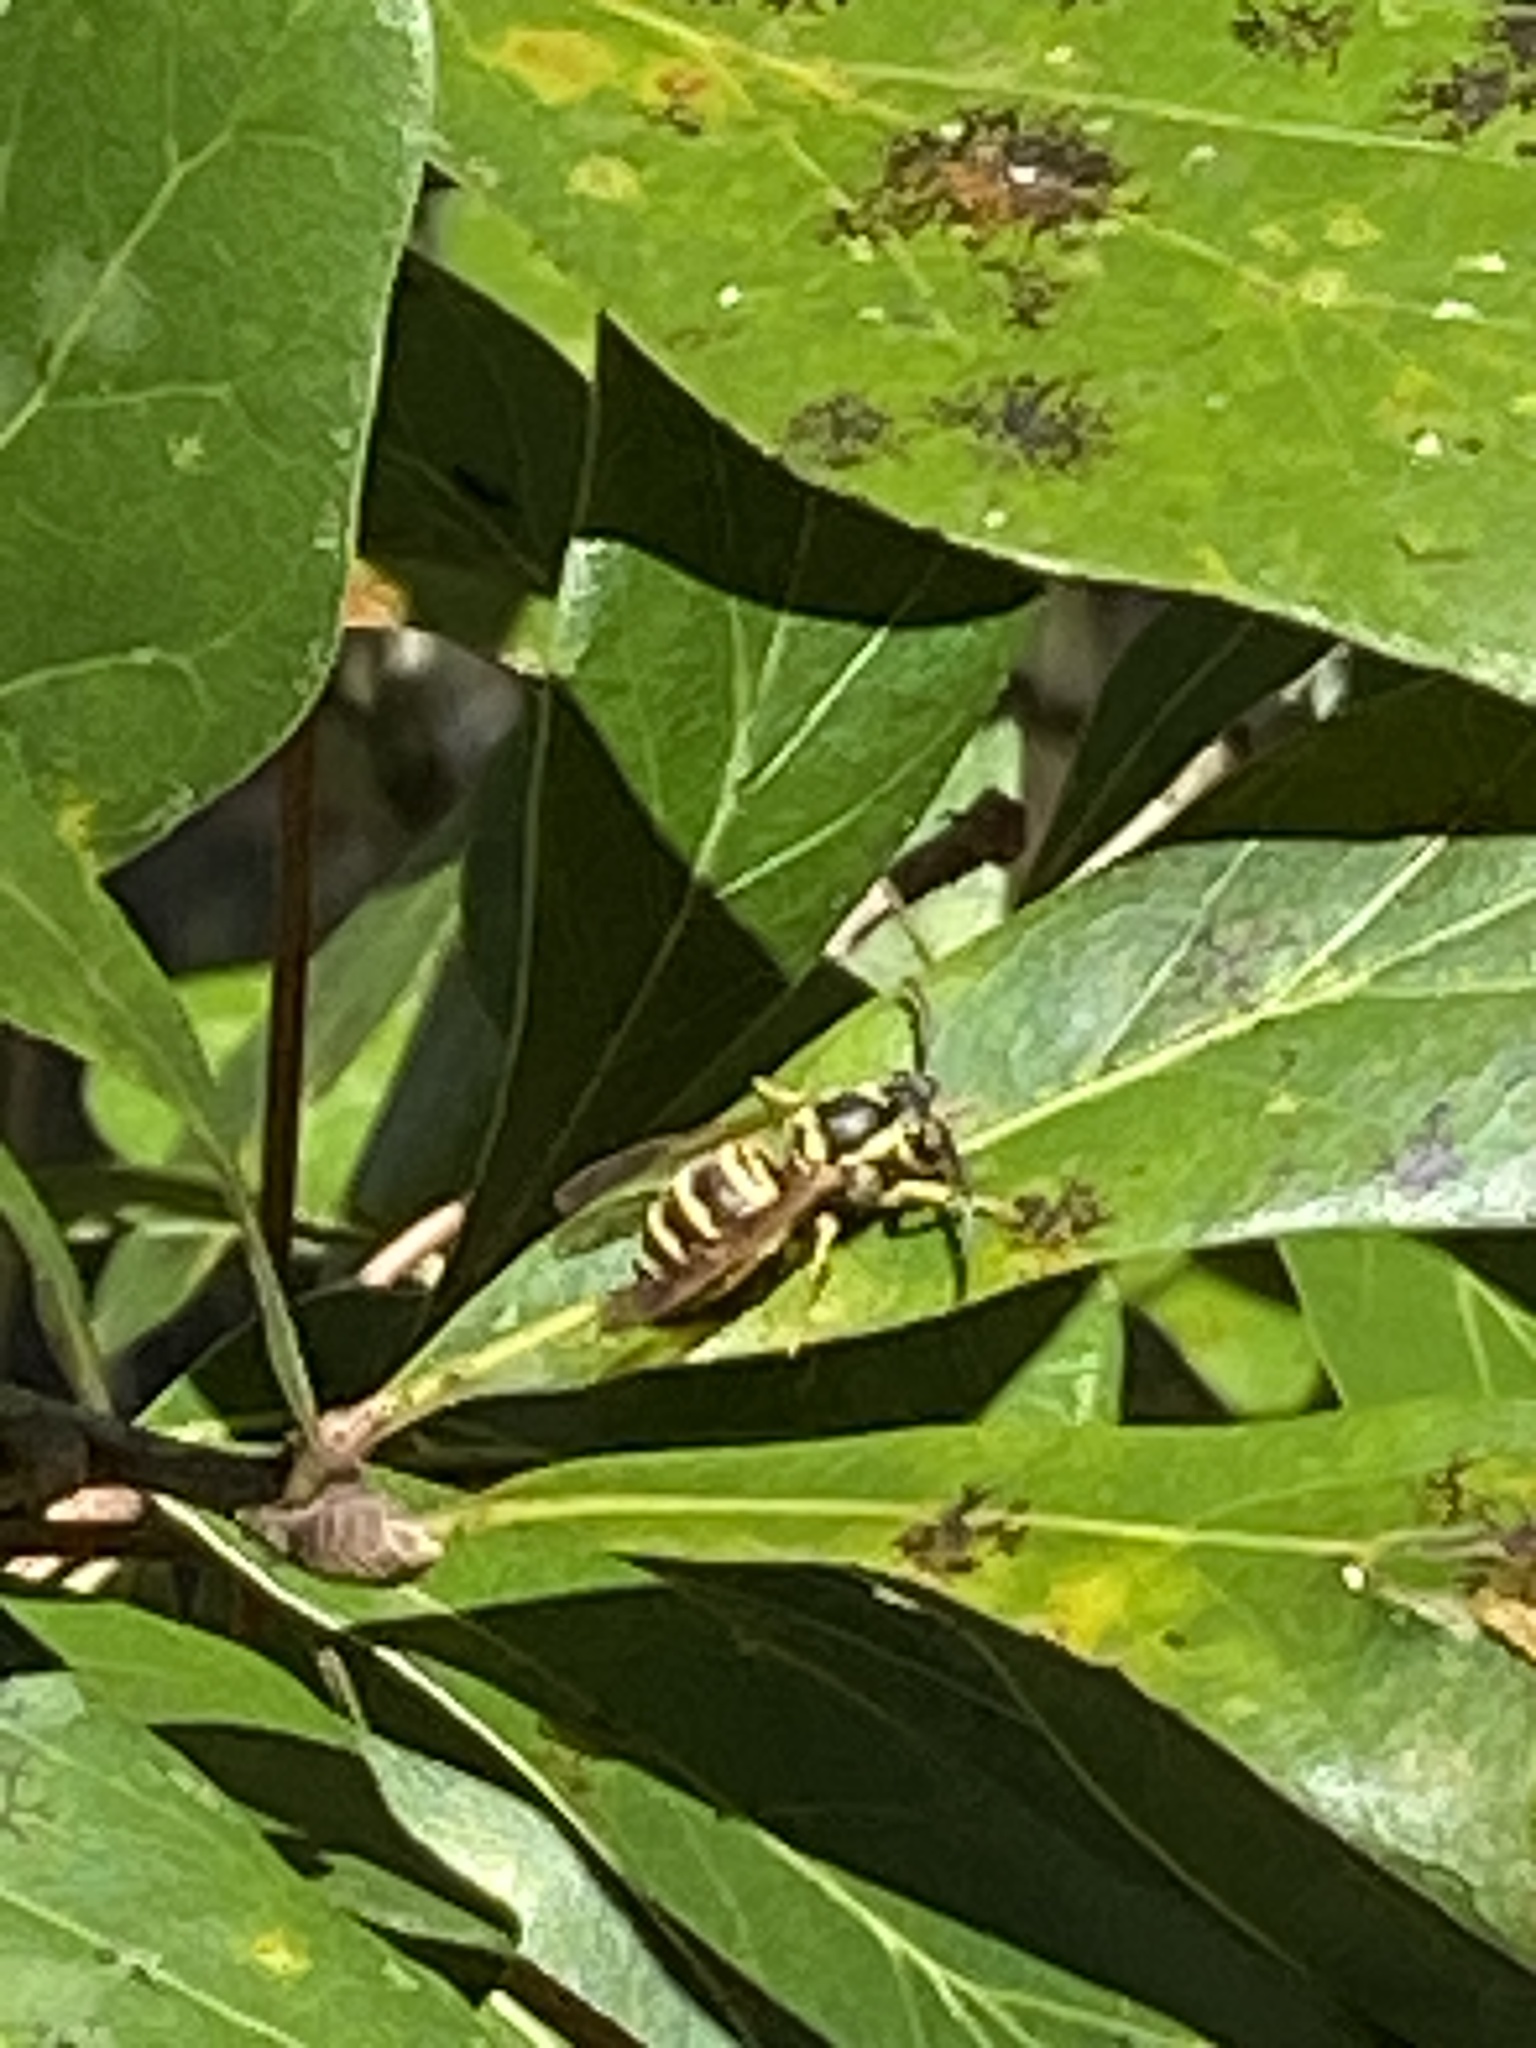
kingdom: Animalia
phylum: Arthropoda
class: Insecta
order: Hymenoptera
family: Vespidae
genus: Vespula
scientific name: Vespula maculifrons
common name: Eastern yellowjacket
